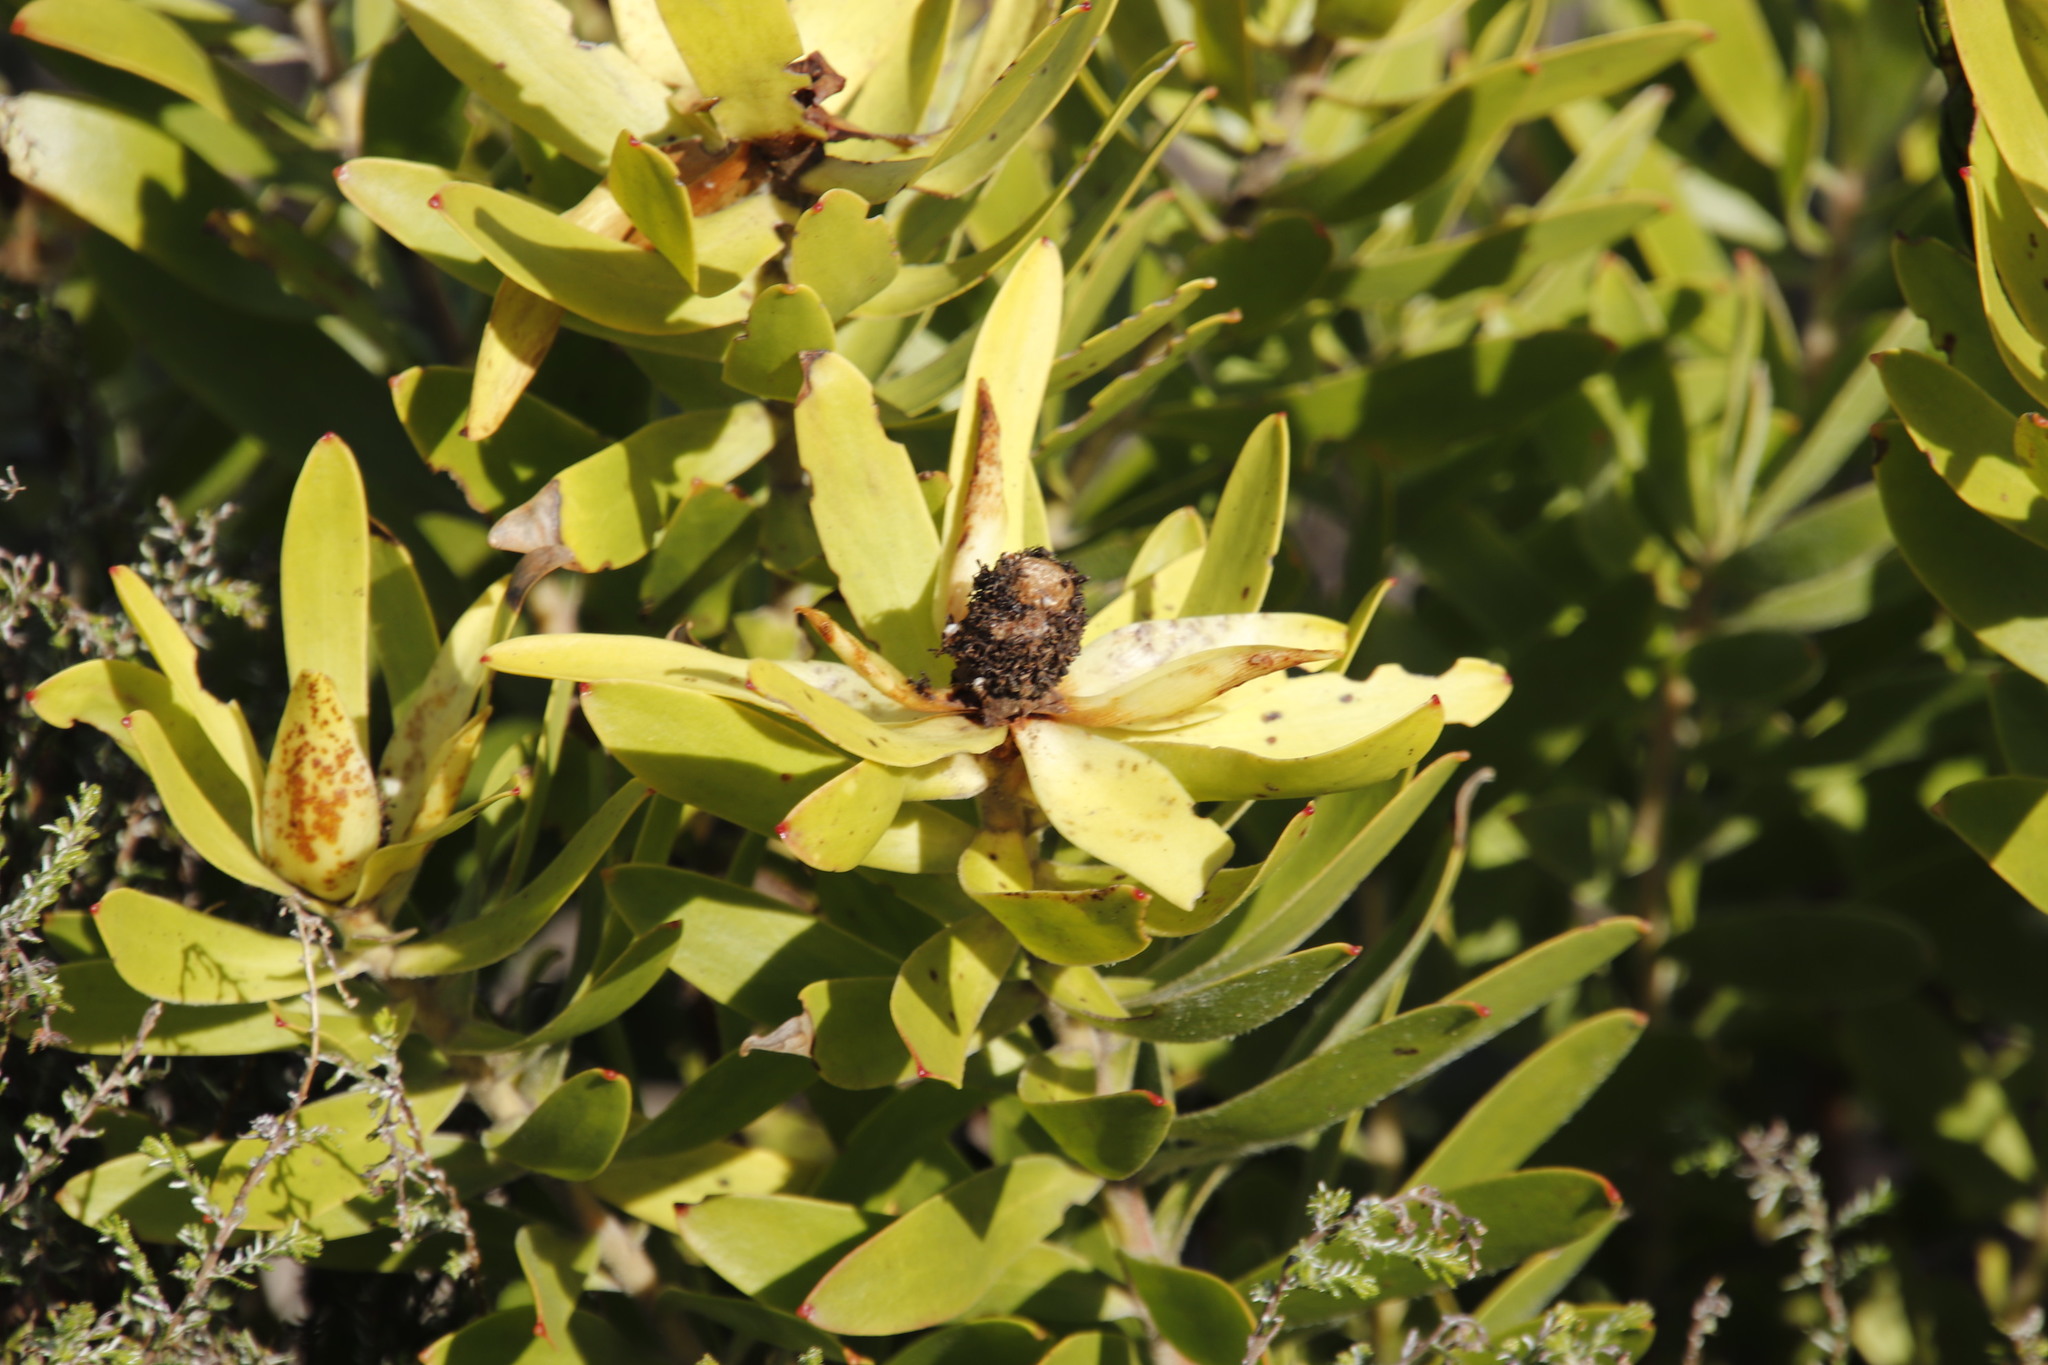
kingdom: Plantae
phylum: Tracheophyta
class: Magnoliopsida
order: Proteales
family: Proteaceae
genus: Leucadendron
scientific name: Leucadendron laureolum
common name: Golden sunshinebush
